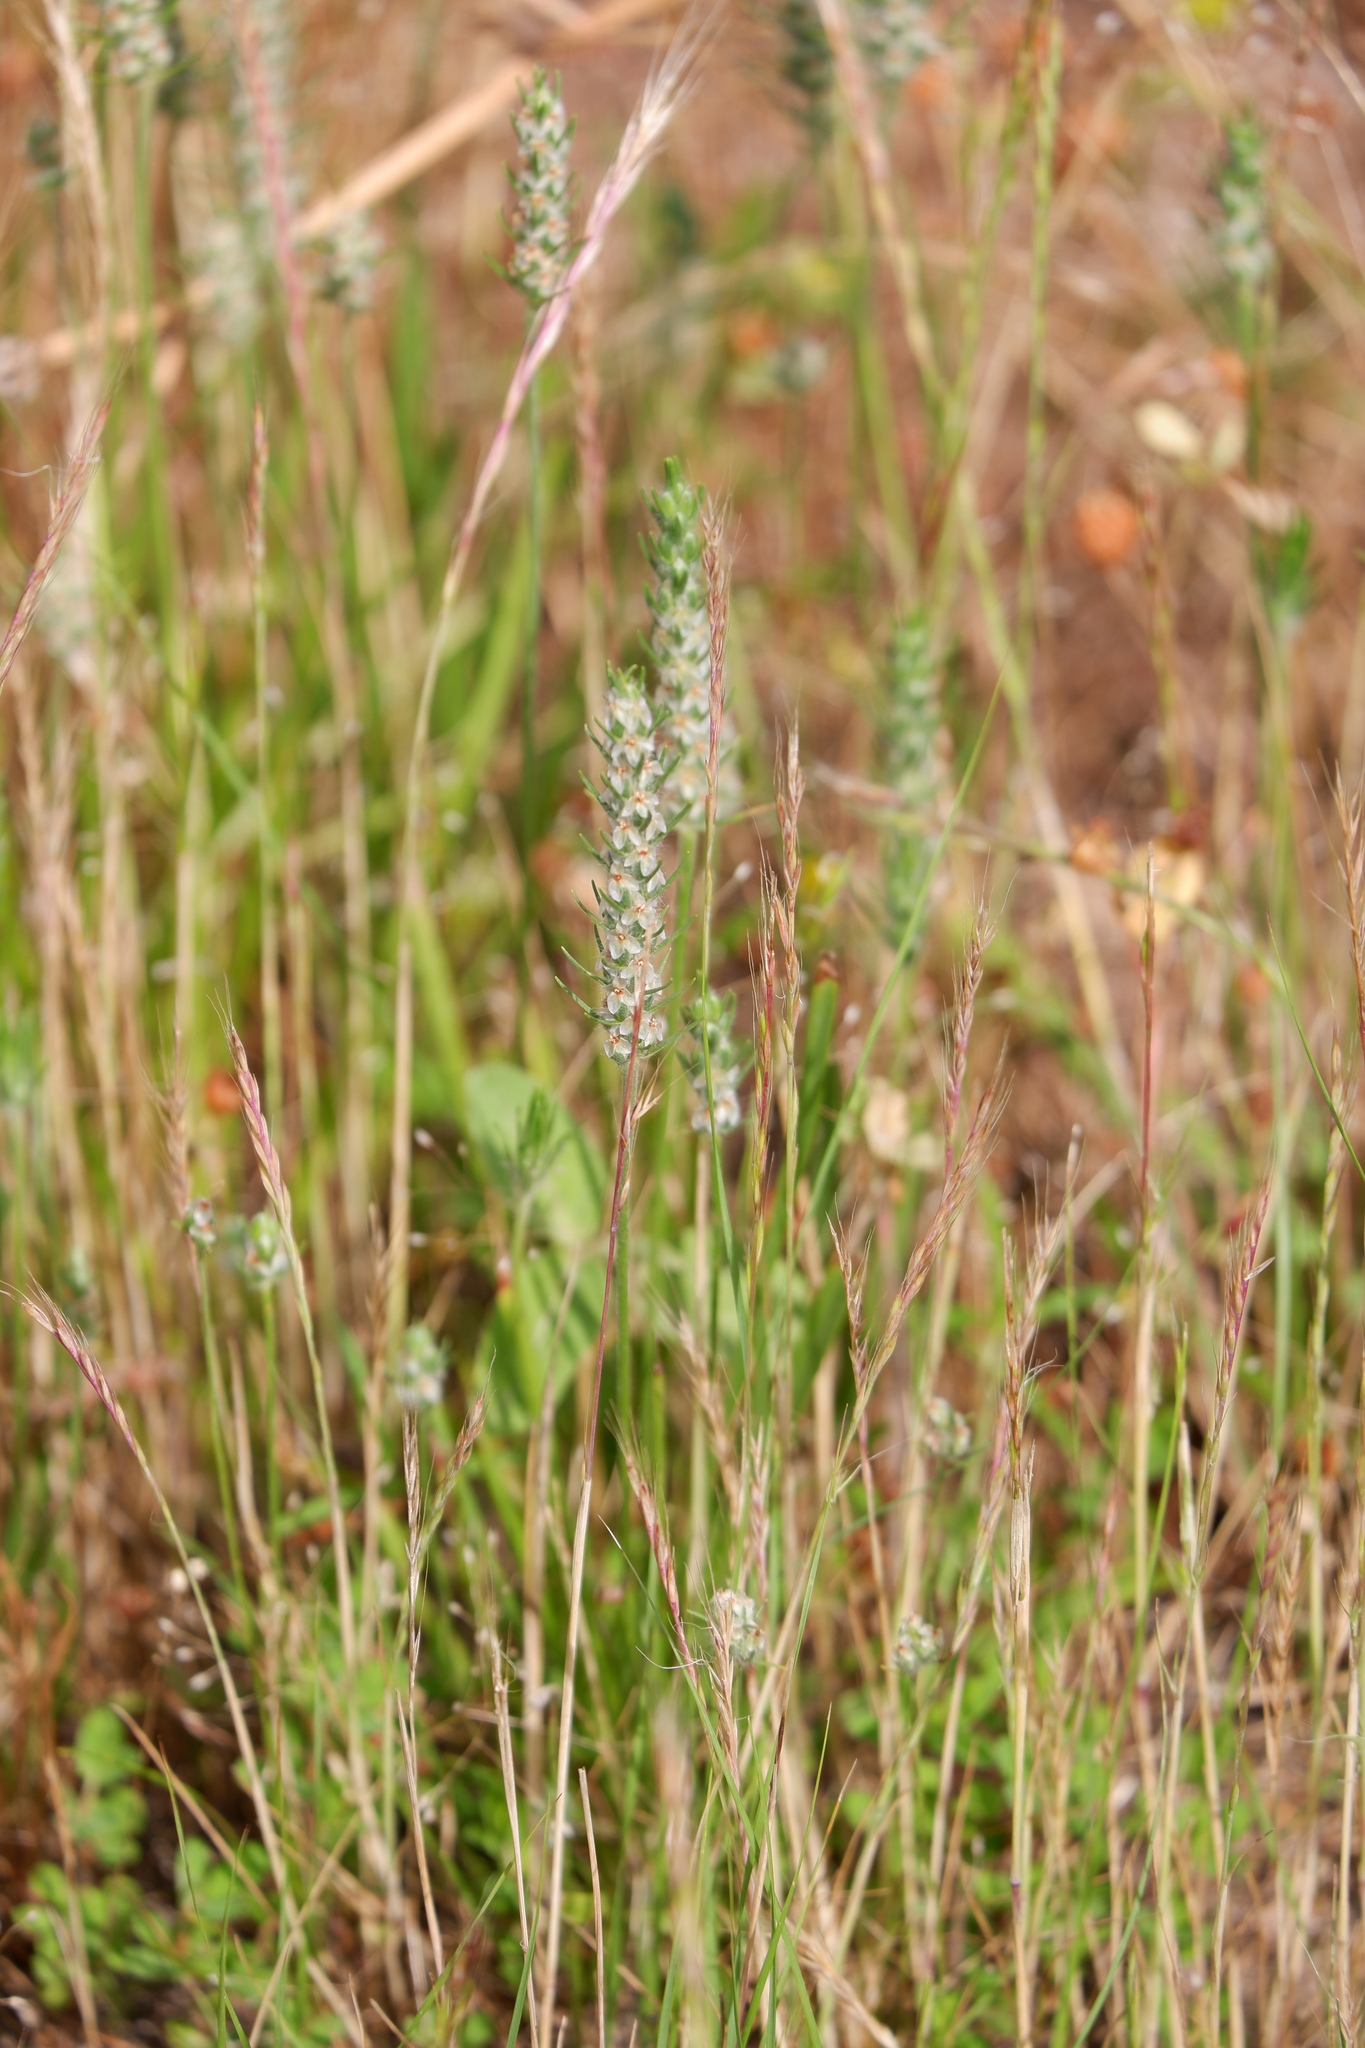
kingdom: Plantae
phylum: Tracheophyta
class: Liliopsida
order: Poales
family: Poaceae
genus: Festuca
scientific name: Festuca octoflora
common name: Sixweeks grass
